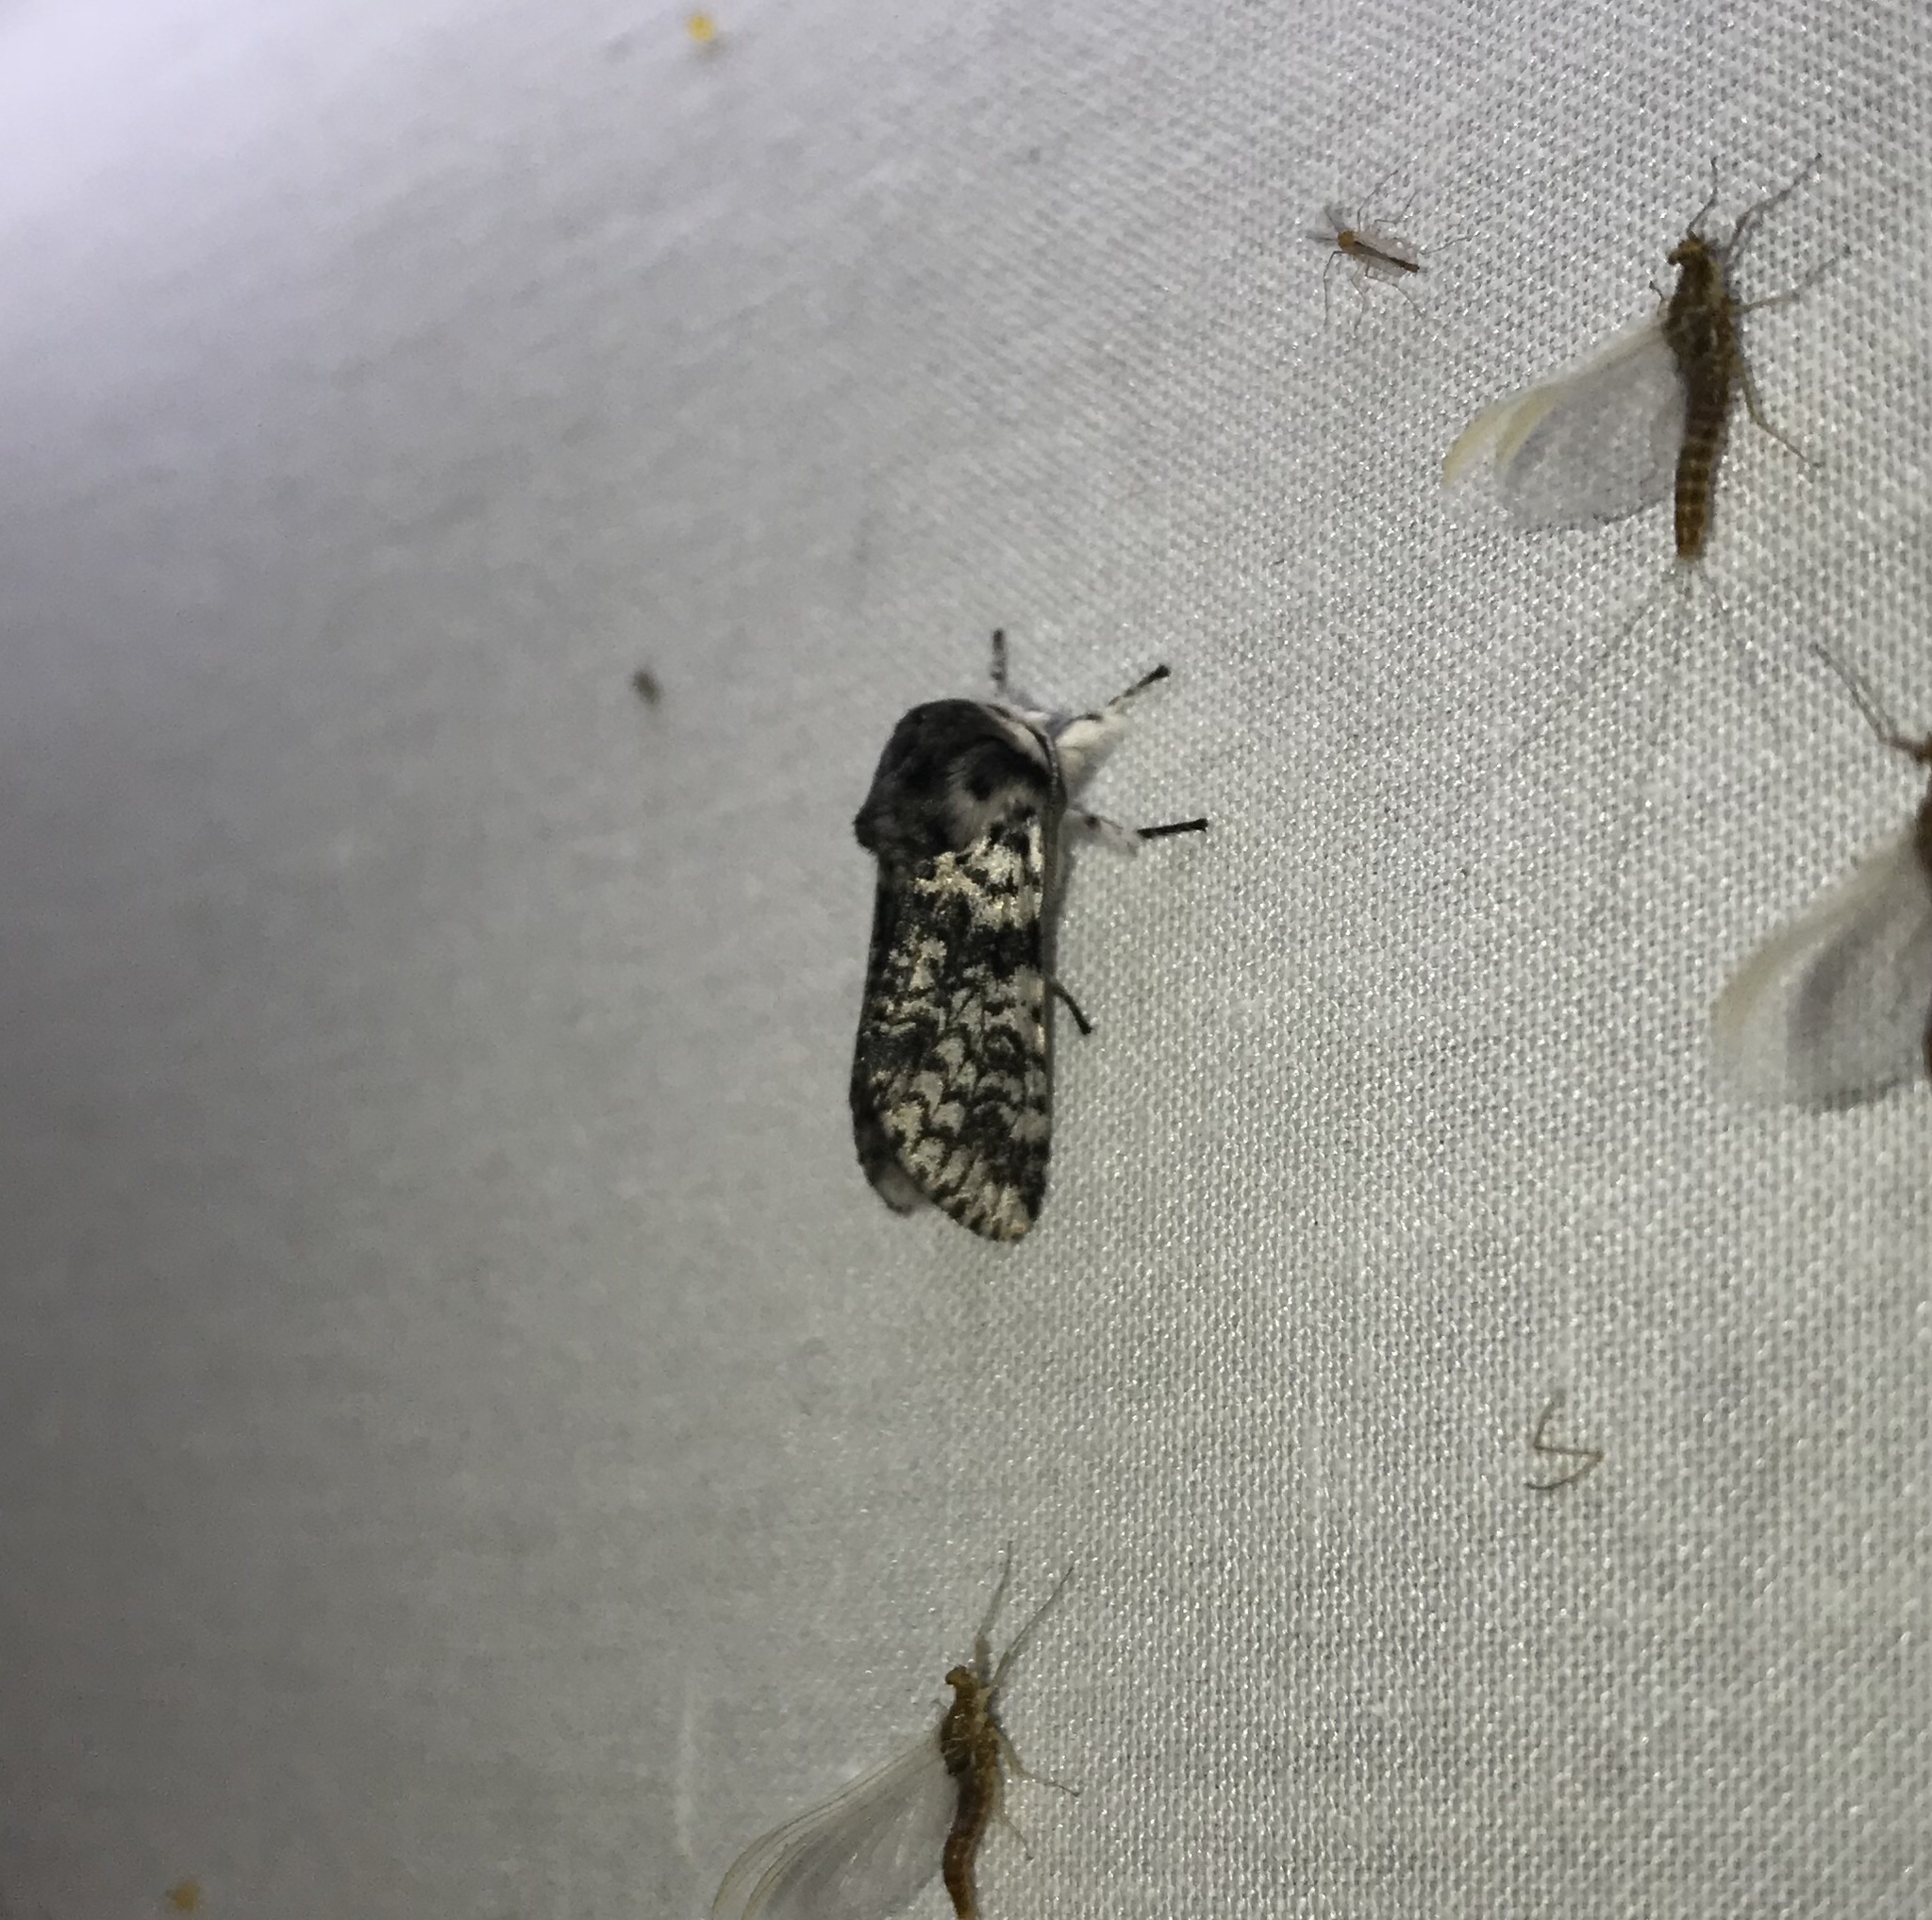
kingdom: Animalia
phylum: Arthropoda
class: Insecta
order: Lepidoptera
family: Notodontidae
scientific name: Notodontidae
